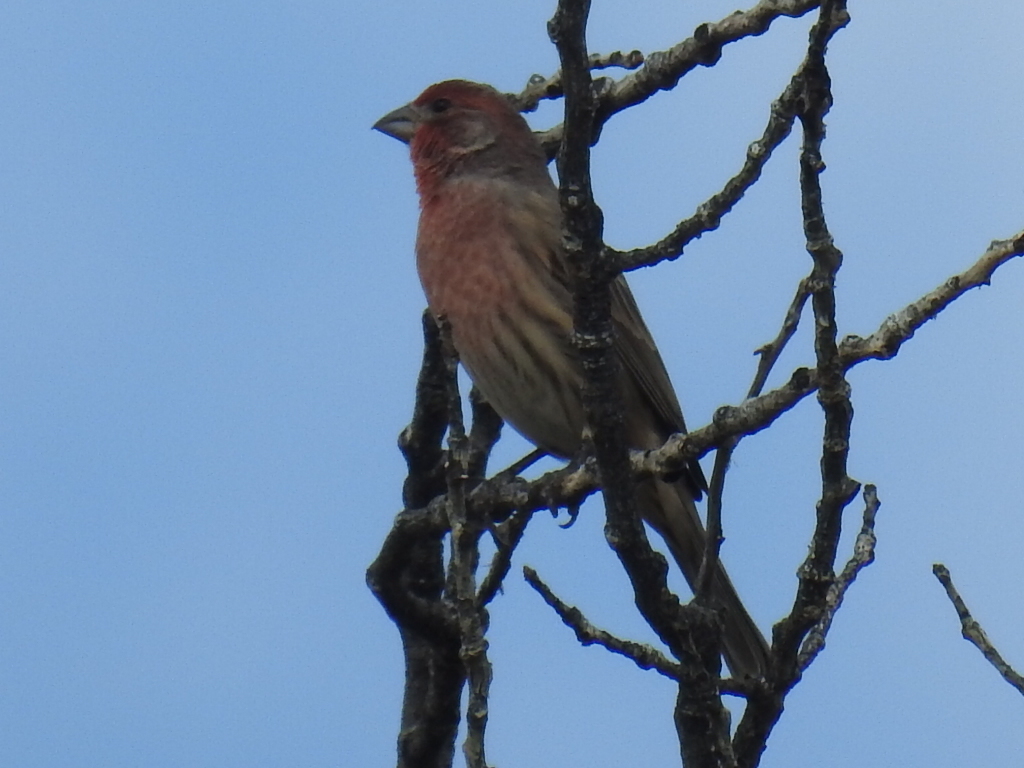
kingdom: Animalia
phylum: Chordata
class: Aves
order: Passeriformes
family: Fringillidae
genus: Haemorhous
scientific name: Haemorhous mexicanus
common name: House finch
